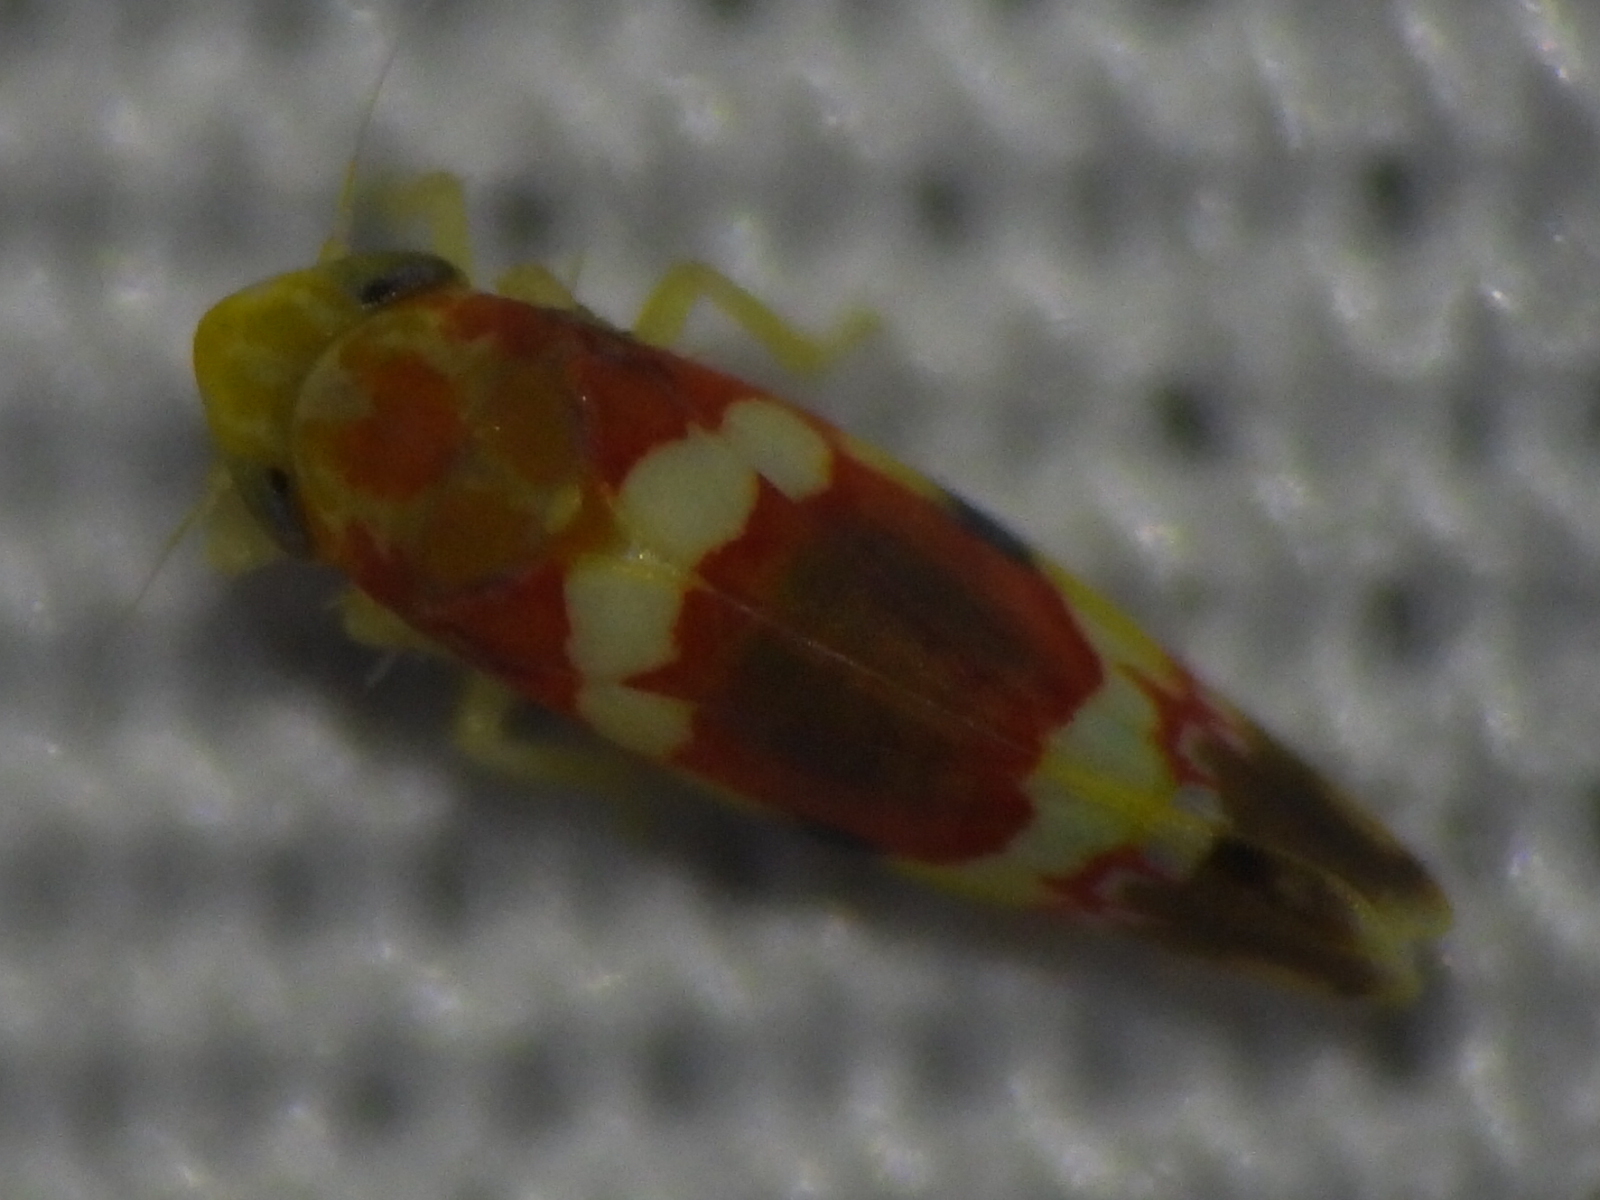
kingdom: Animalia
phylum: Arthropoda
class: Insecta
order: Hemiptera
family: Cicadellidae
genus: Erythroneura
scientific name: Erythroneura vitis
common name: Grapevine leafhopper
